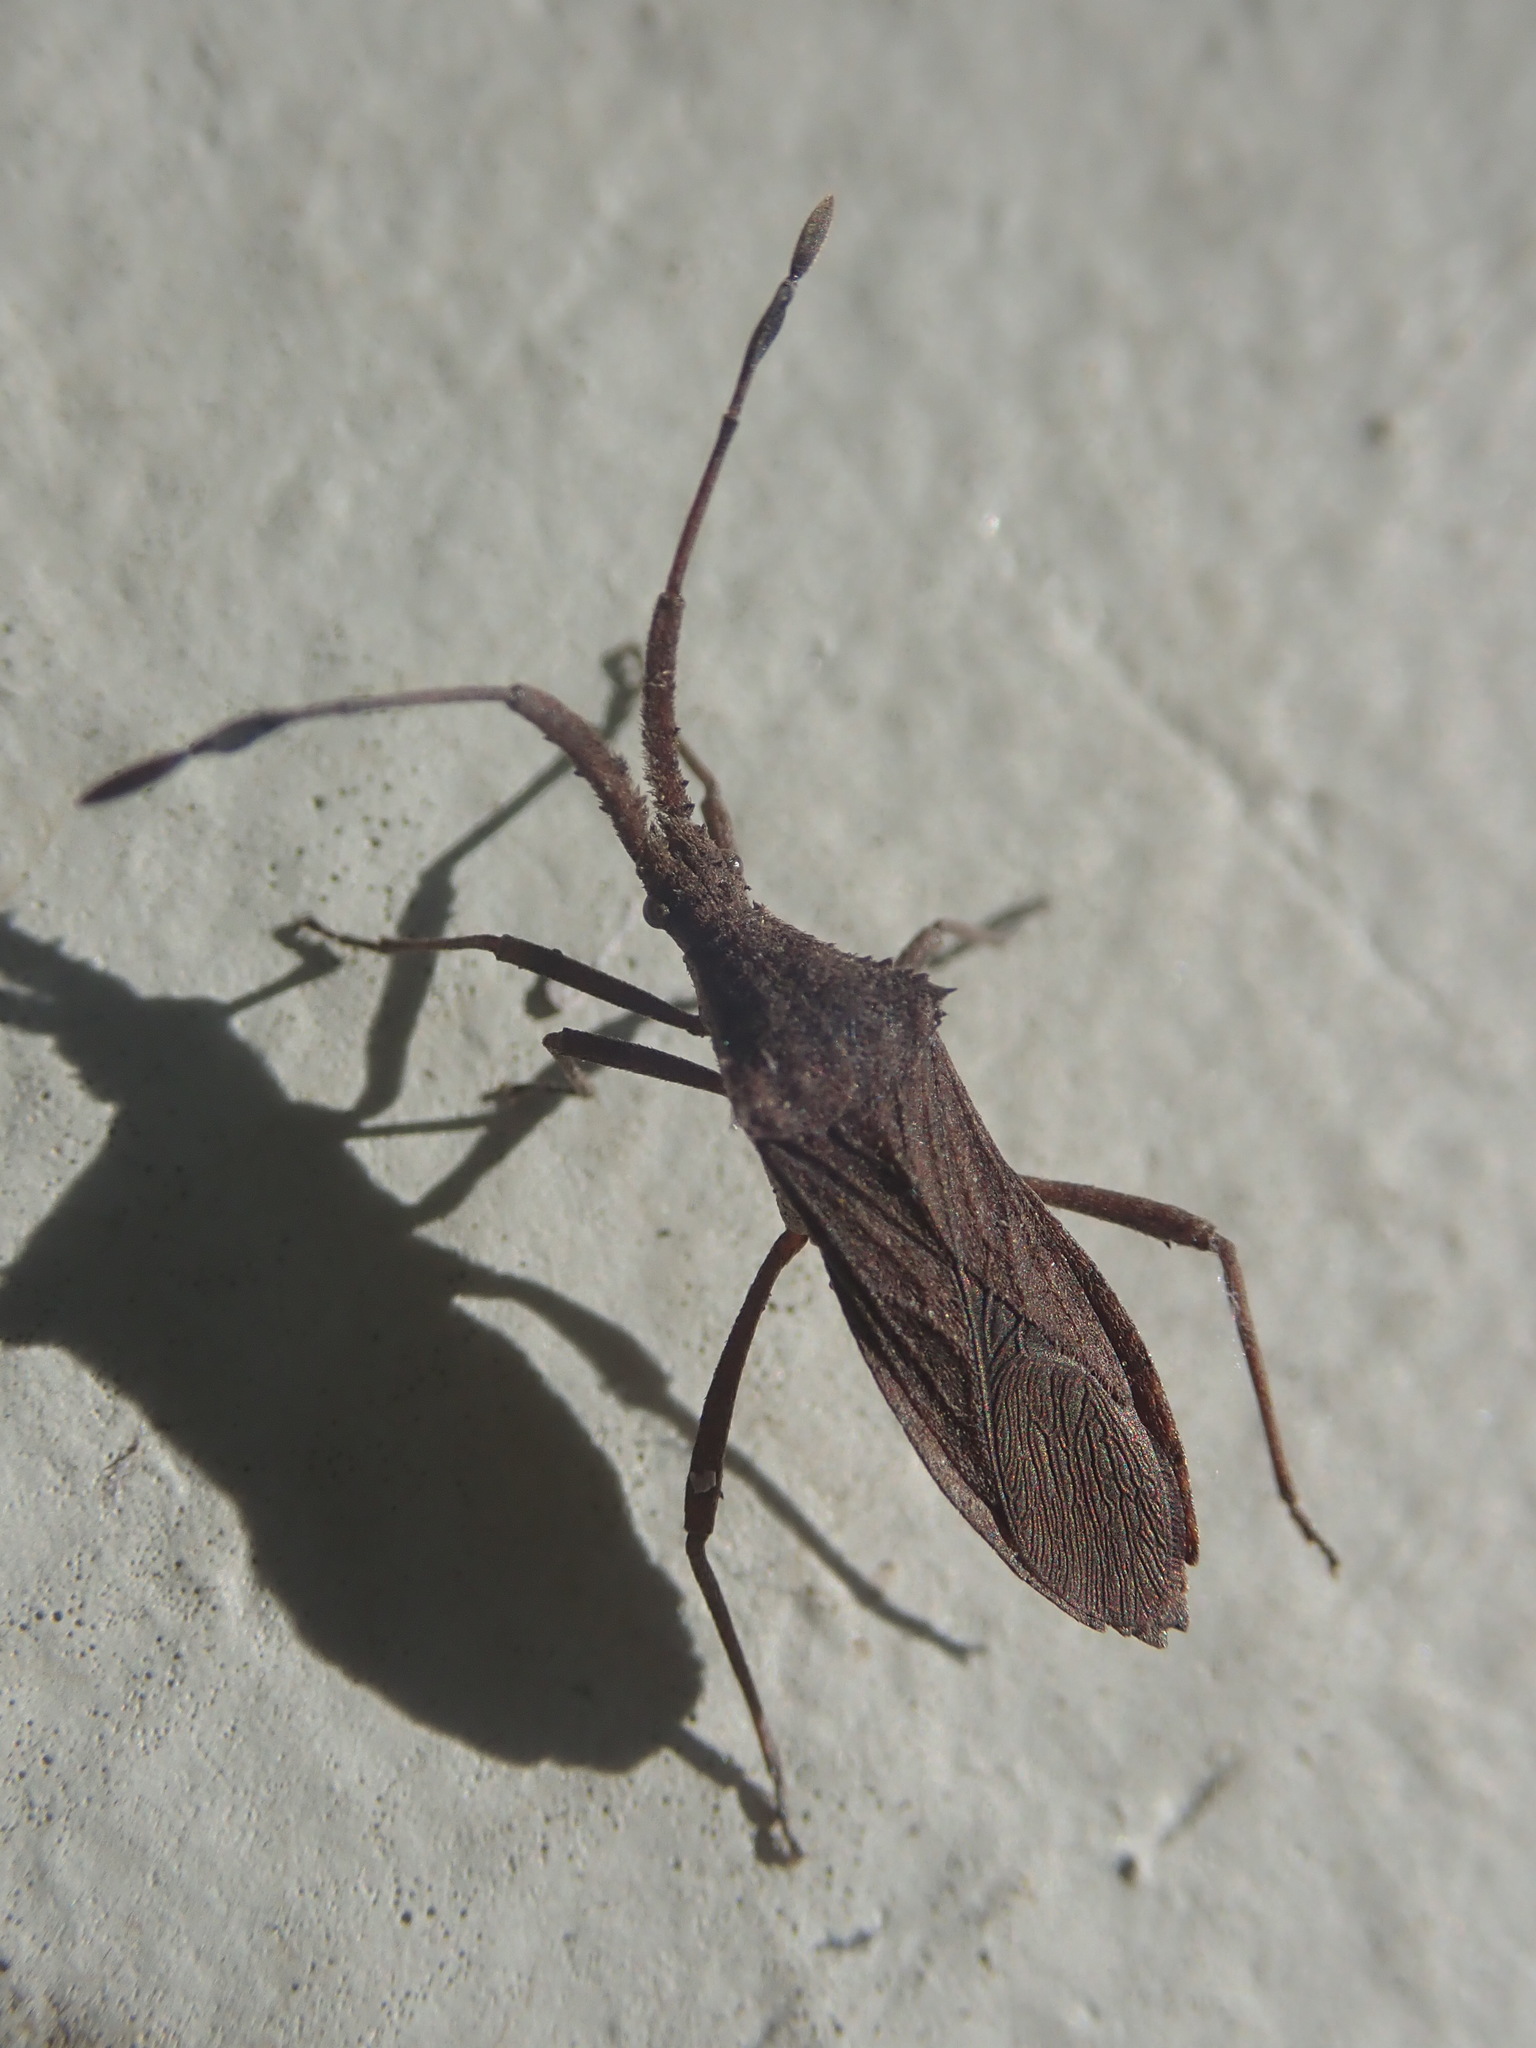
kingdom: Animalia
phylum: Arthropoda
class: Insecta
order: Hemiptera
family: Coreidae
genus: Chariesterus
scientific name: Chariesterus antennator
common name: Flat horned coreid
